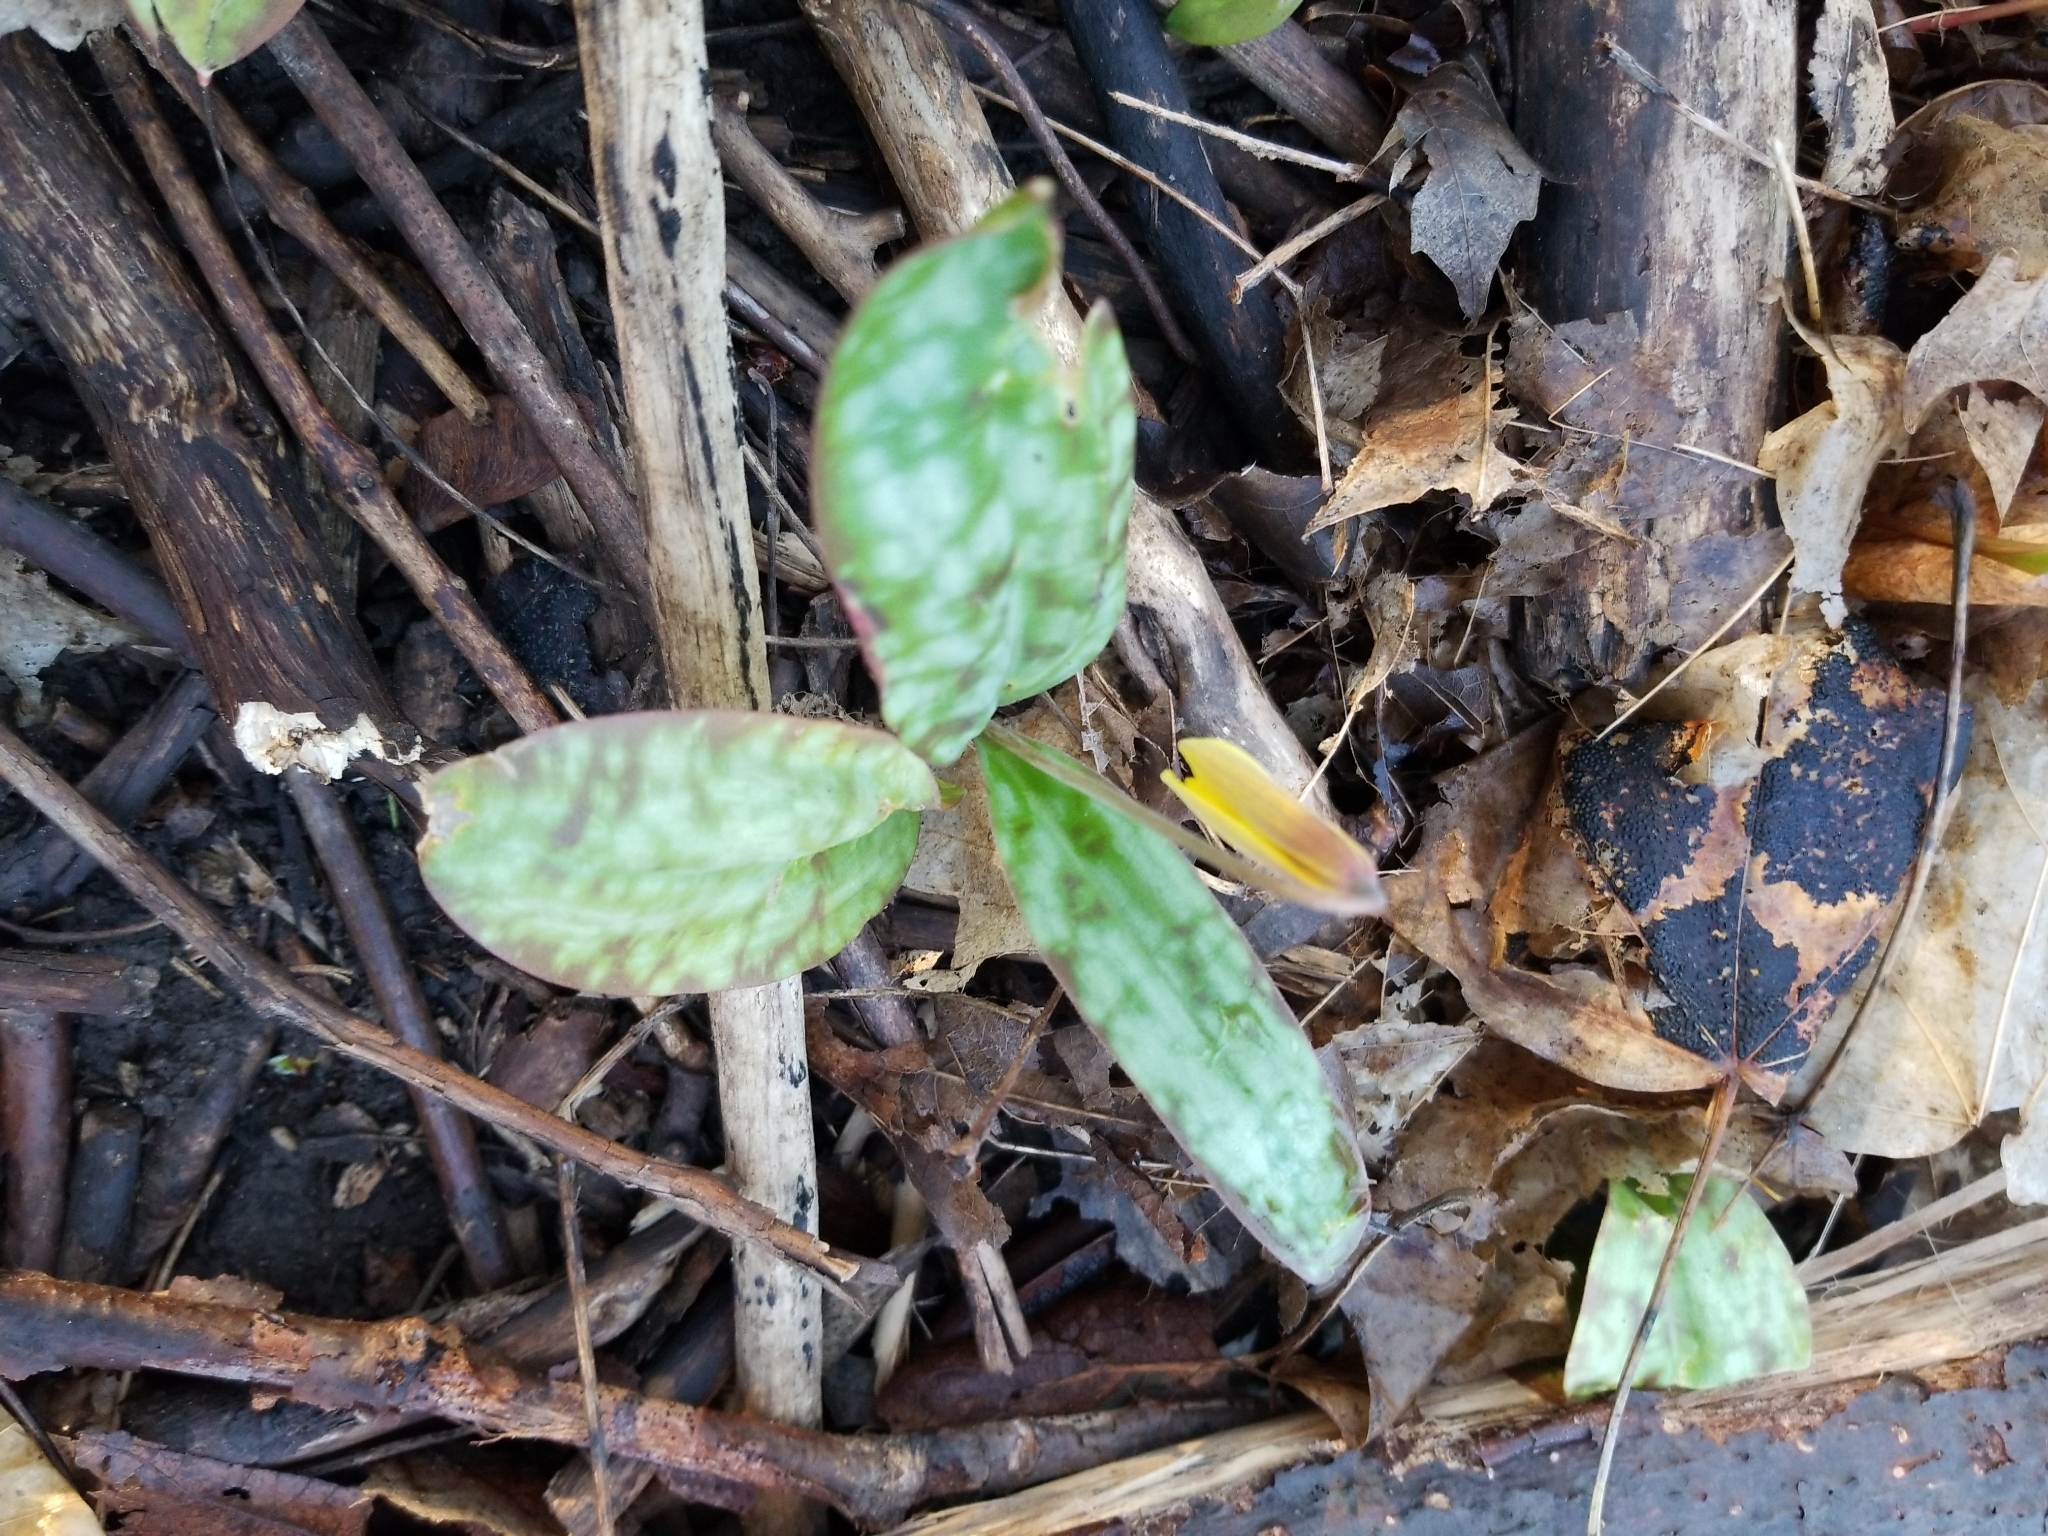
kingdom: Plantae
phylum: Tracheophyta
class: Liliopsida
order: Liliales
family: Liliaceae
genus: Erythronium
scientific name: Erythronium americanum
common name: Yellow adder's-tongue
